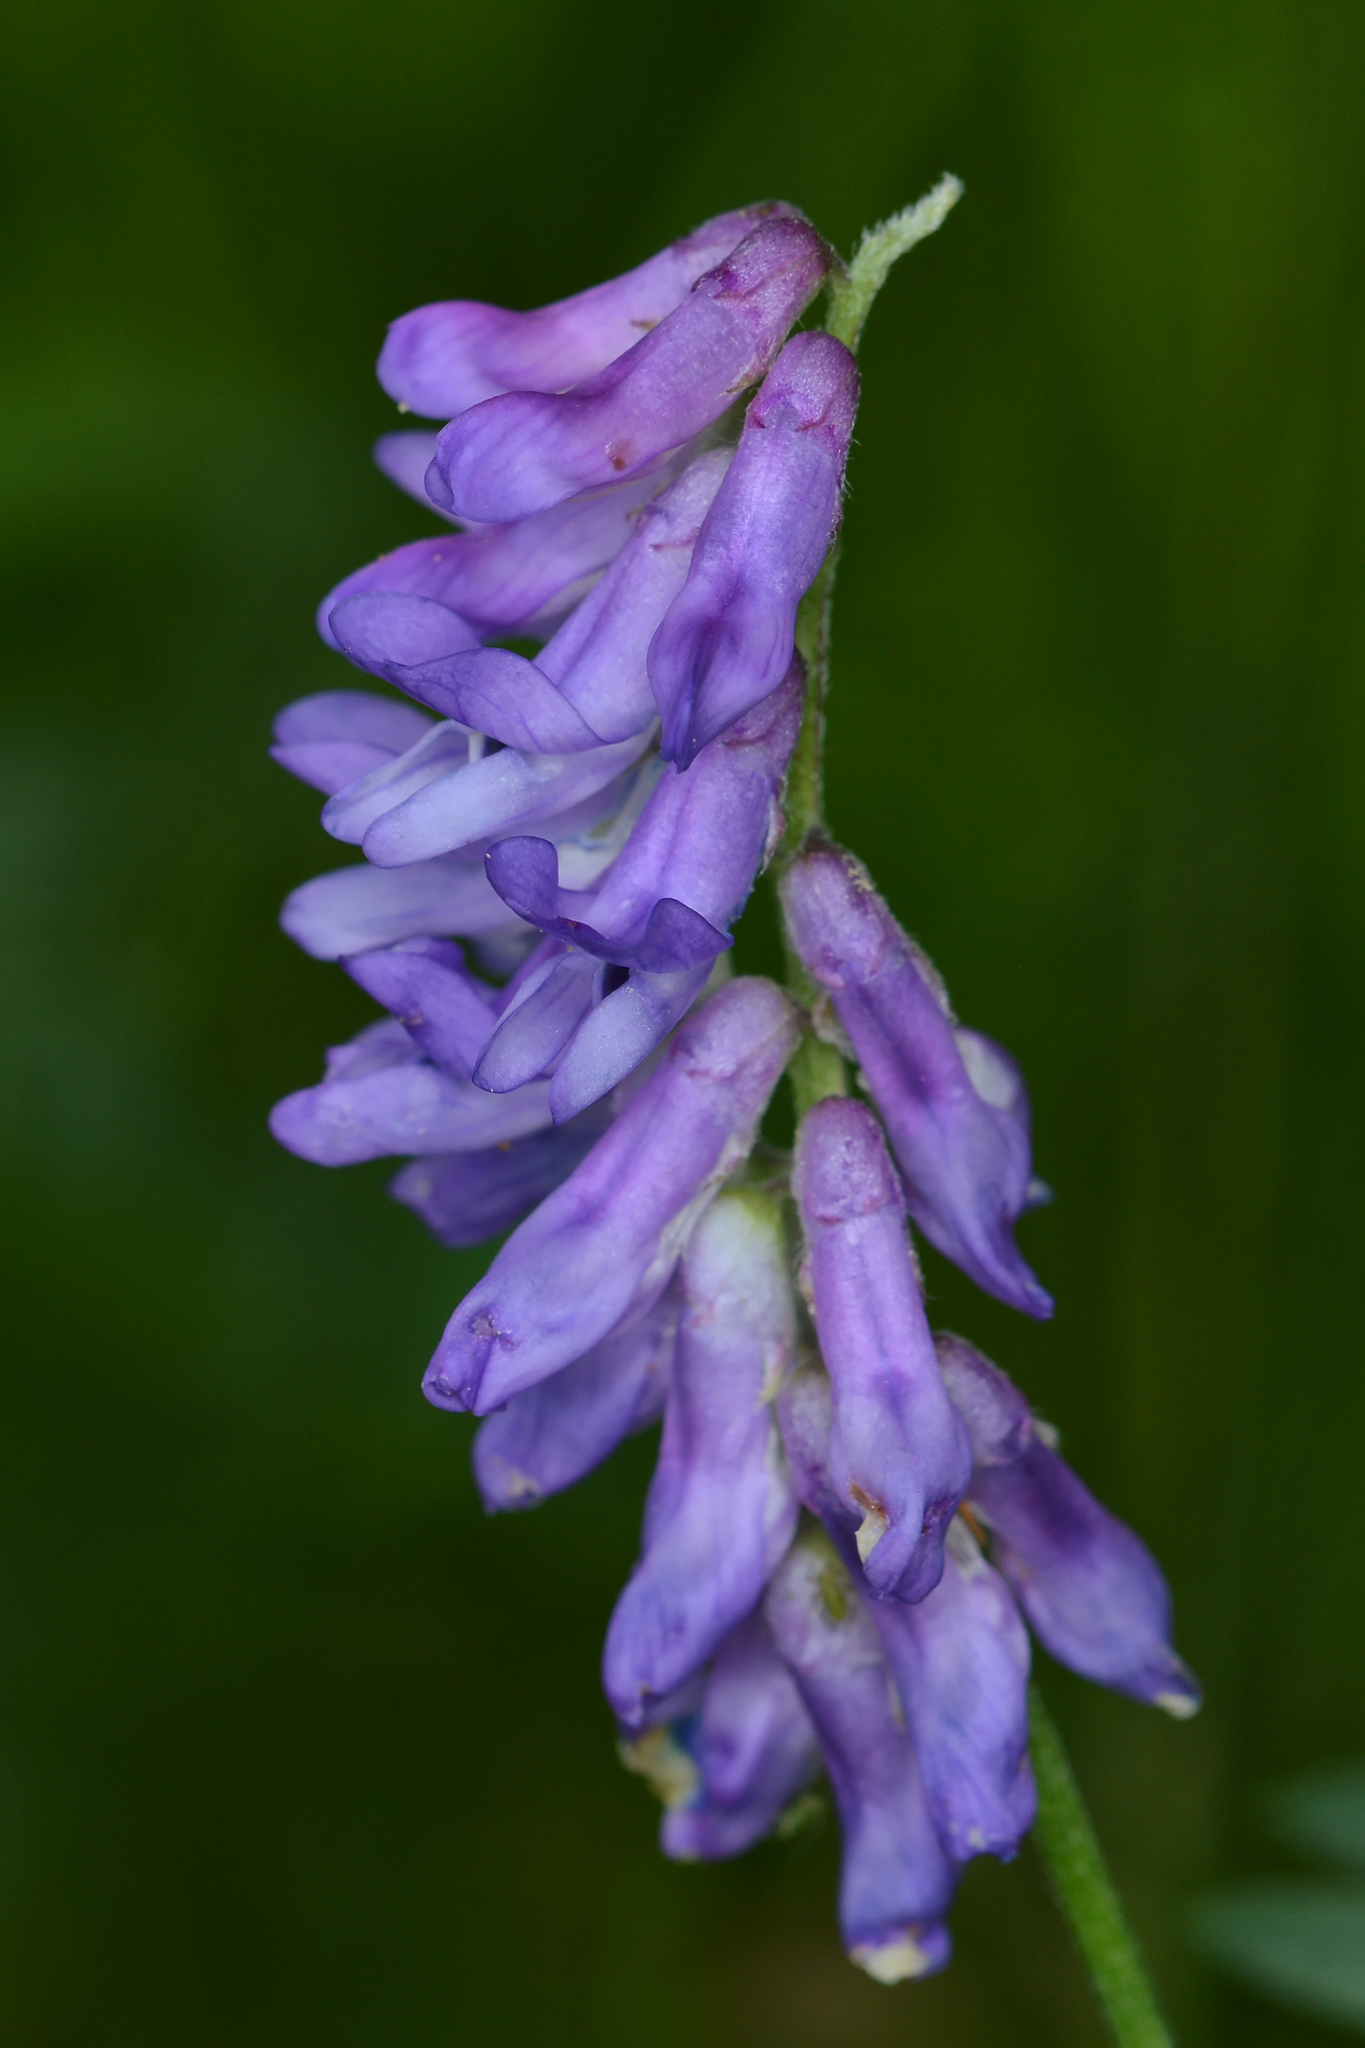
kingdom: Plantae
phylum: Tracheophyta
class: Magnoliopsida
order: Fabales
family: Fabaceae
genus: Vicia
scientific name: Vicia cracca
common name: Bird vetch
